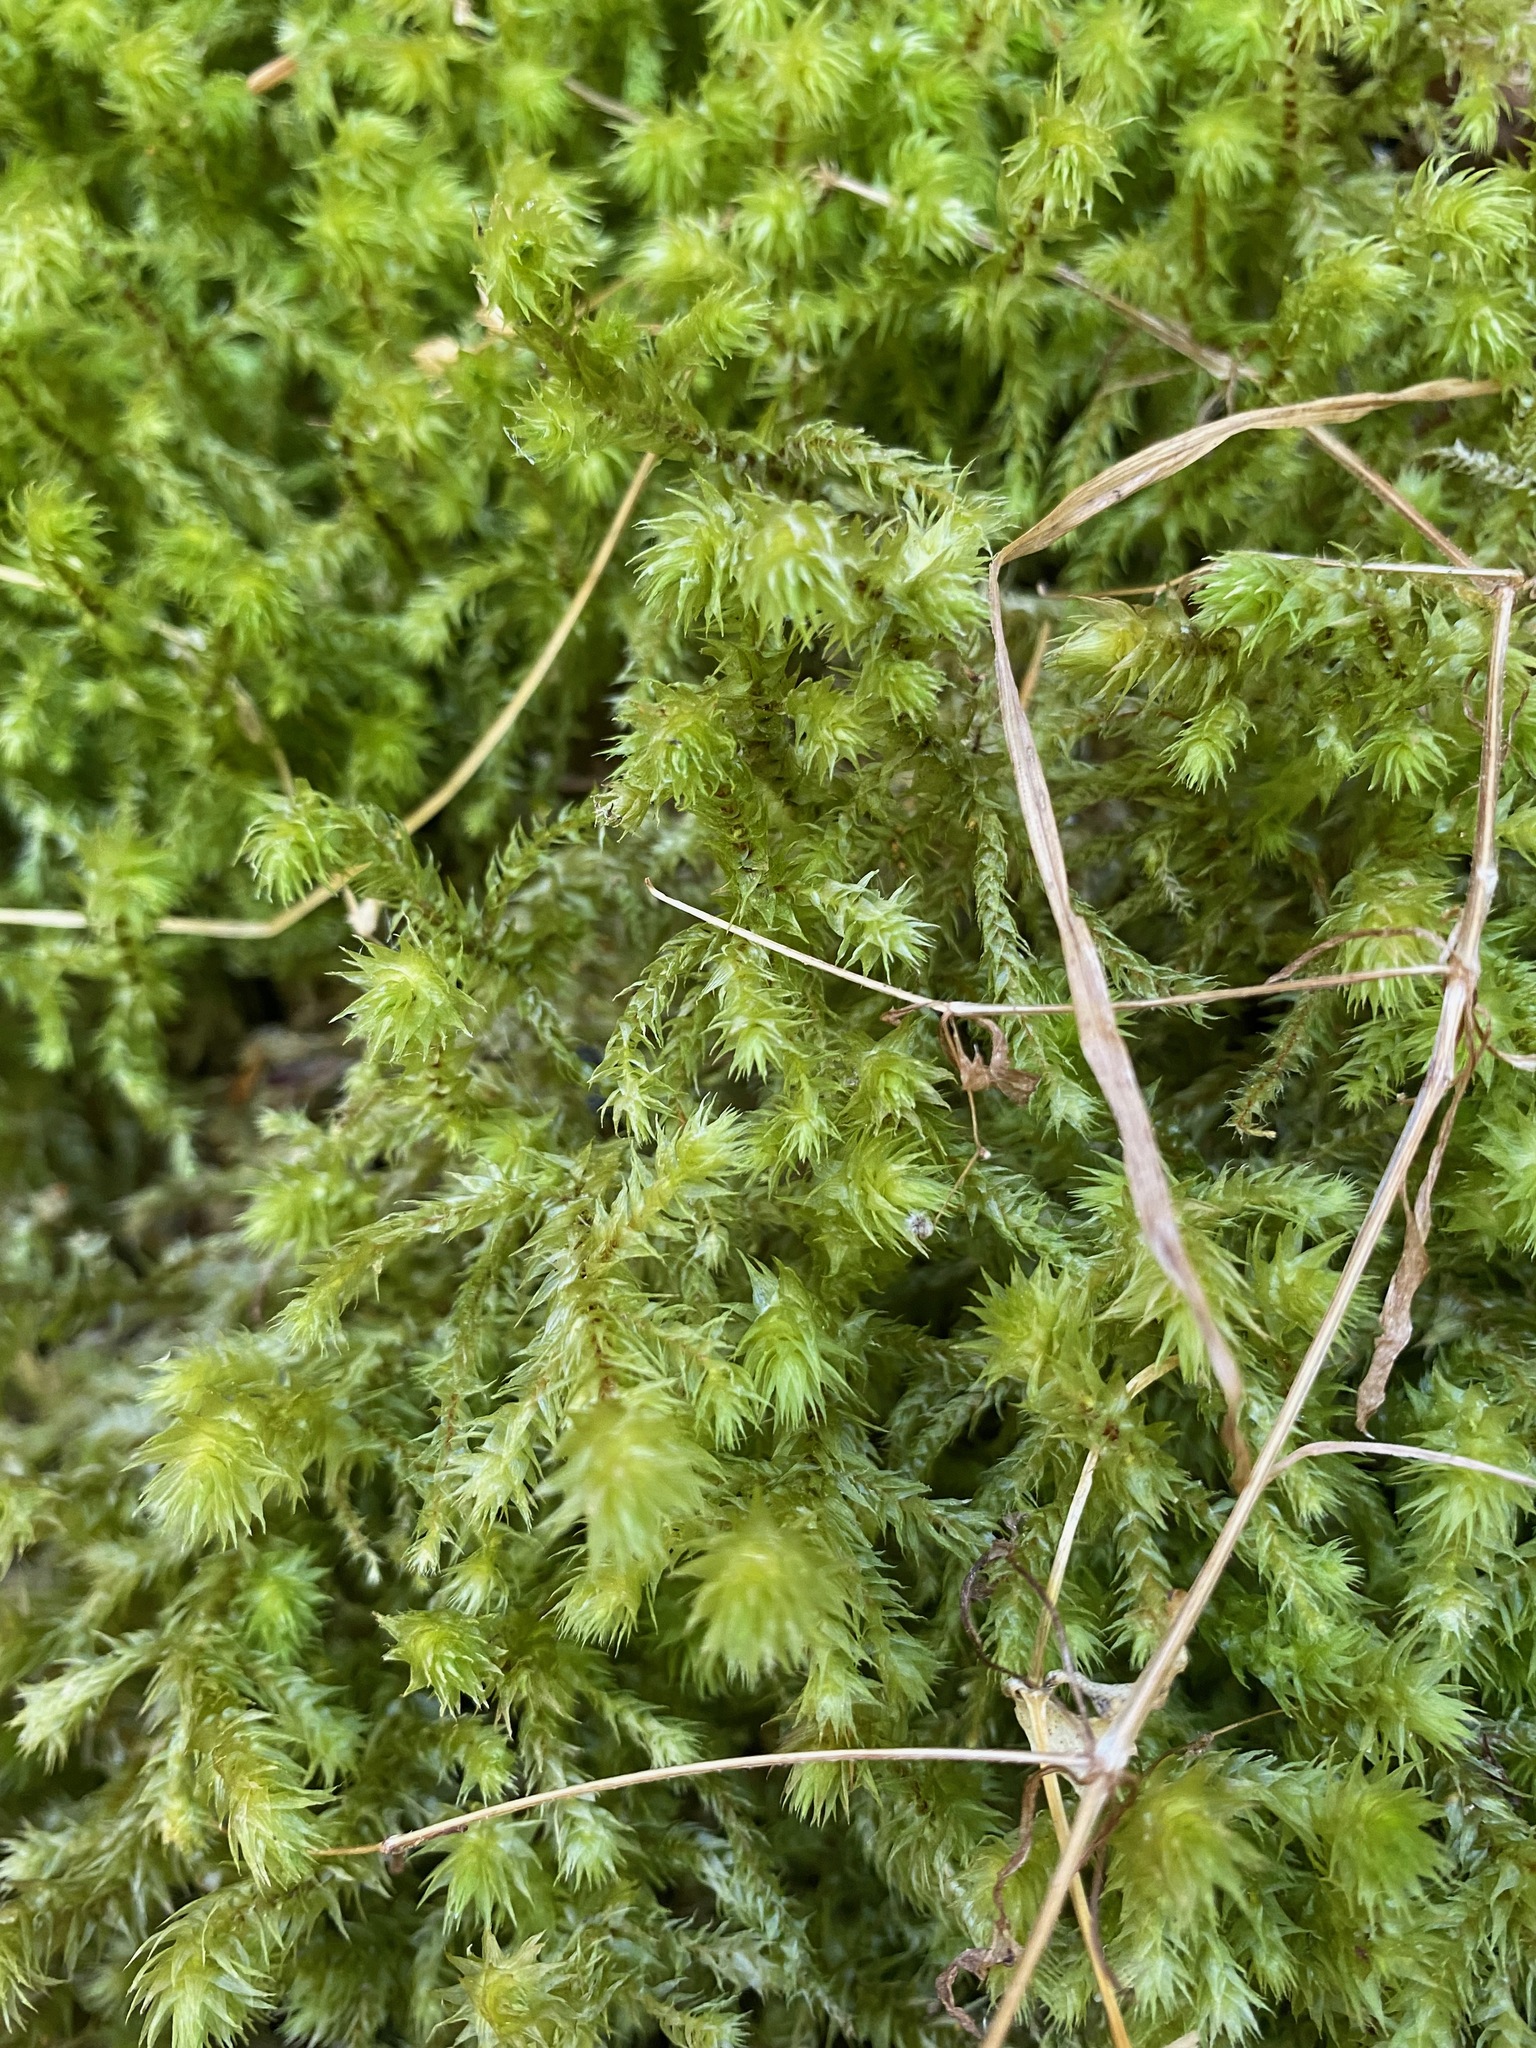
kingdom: Plantae
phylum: Bryophyta
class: Bryopsida
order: Hypnales
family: Hylocomiaceae
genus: Hylocomiadelphus
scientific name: Hylocomiadelphus triquetrus
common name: Rough goose neck moss
